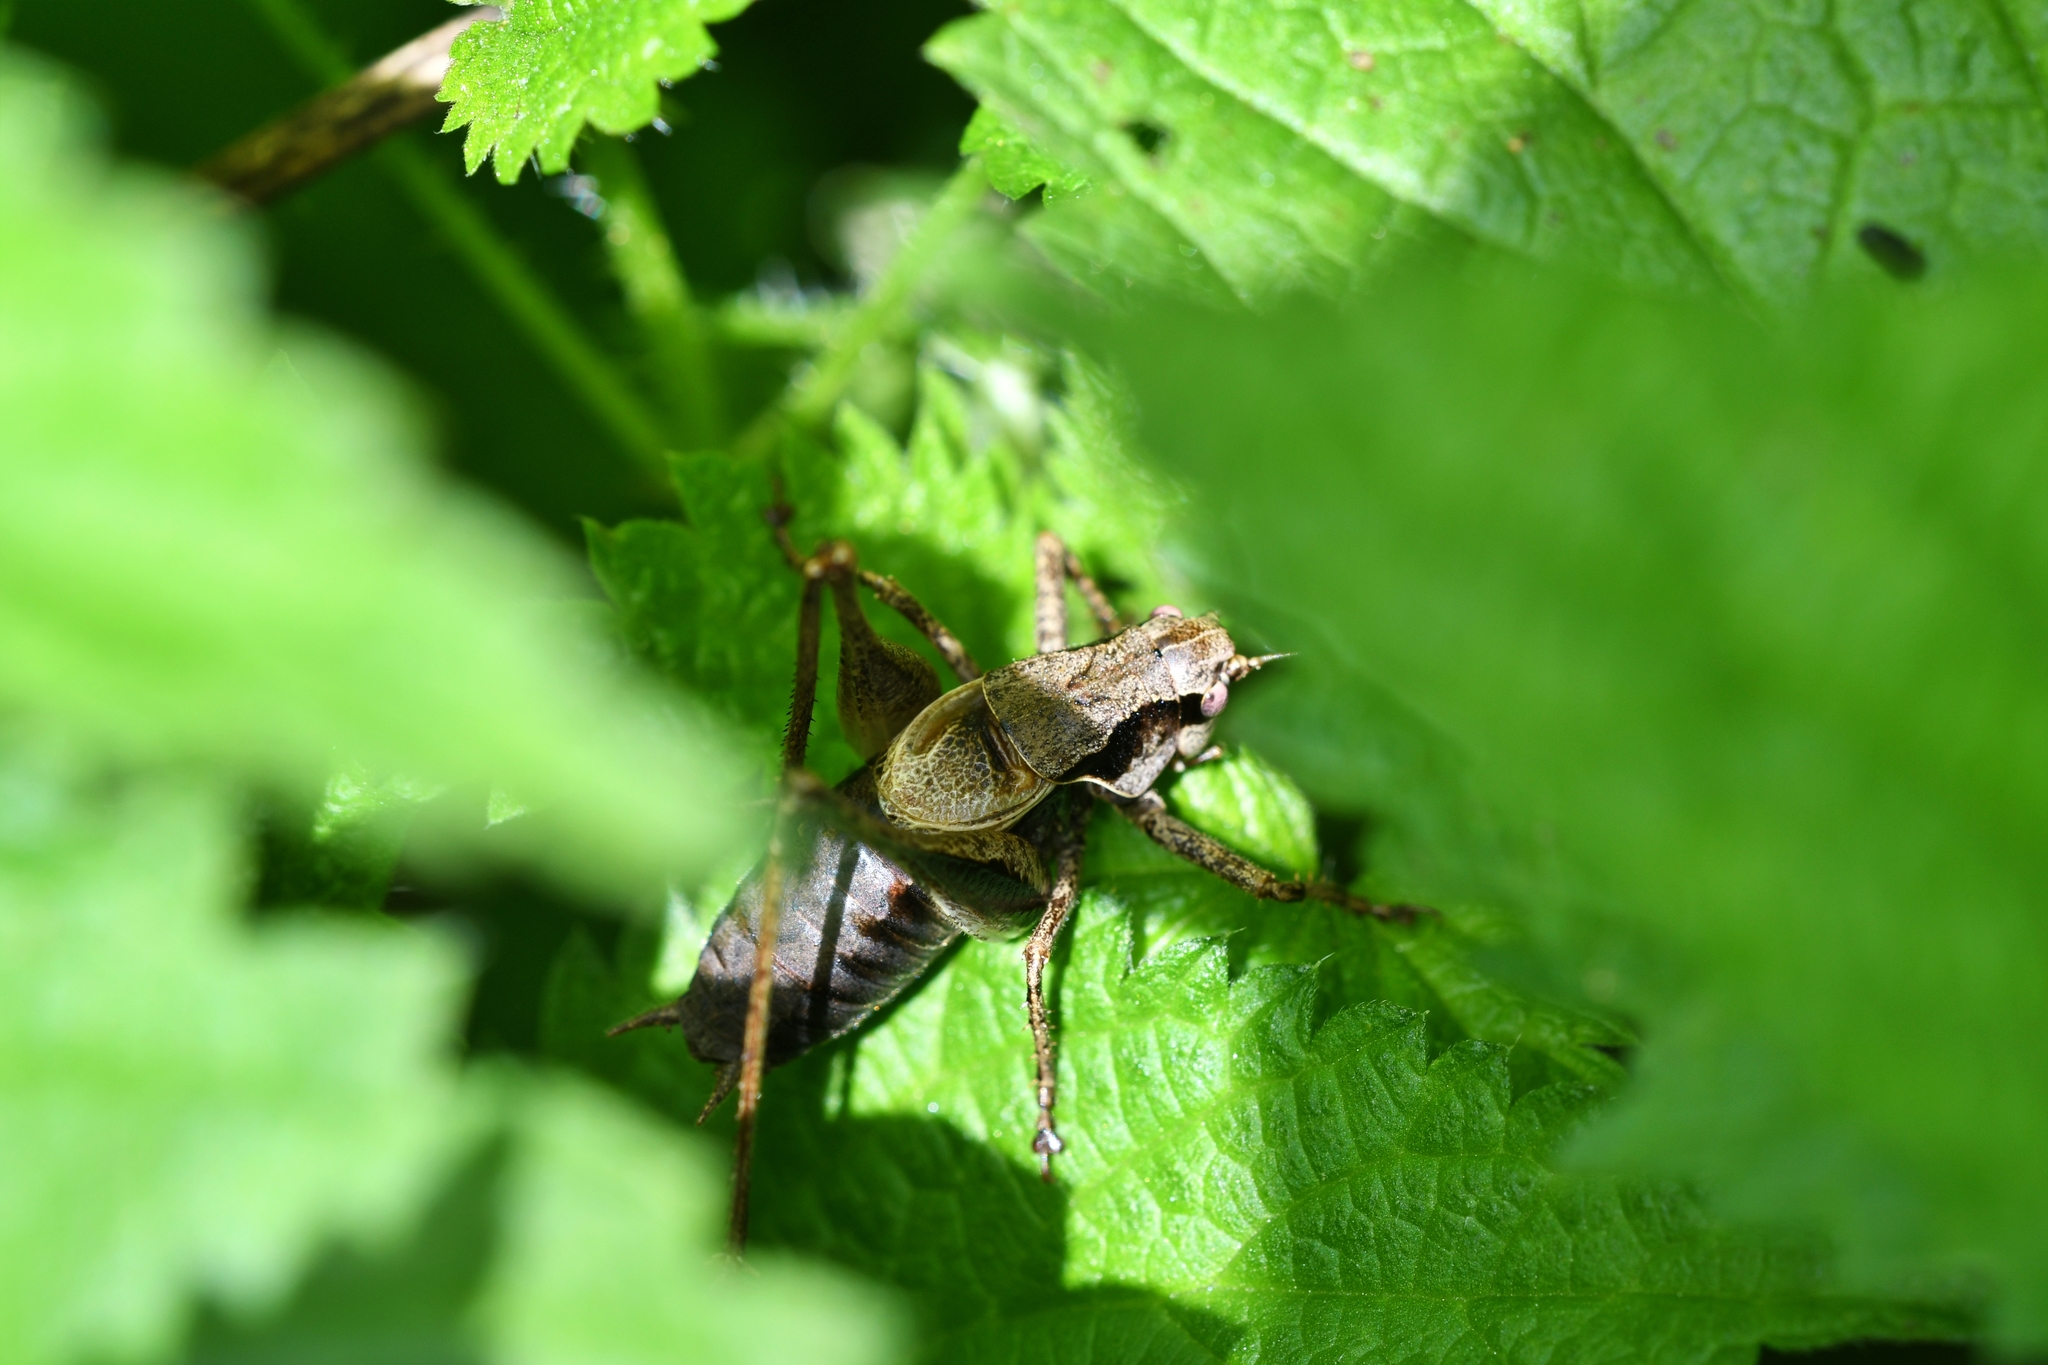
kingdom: Animalia
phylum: Arthropoda
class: Insecta
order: Orthoptera
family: Tettigoniidae
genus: Pholidoptera
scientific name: Pholidoptera griseoaptera
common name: Dark bush-cricket
